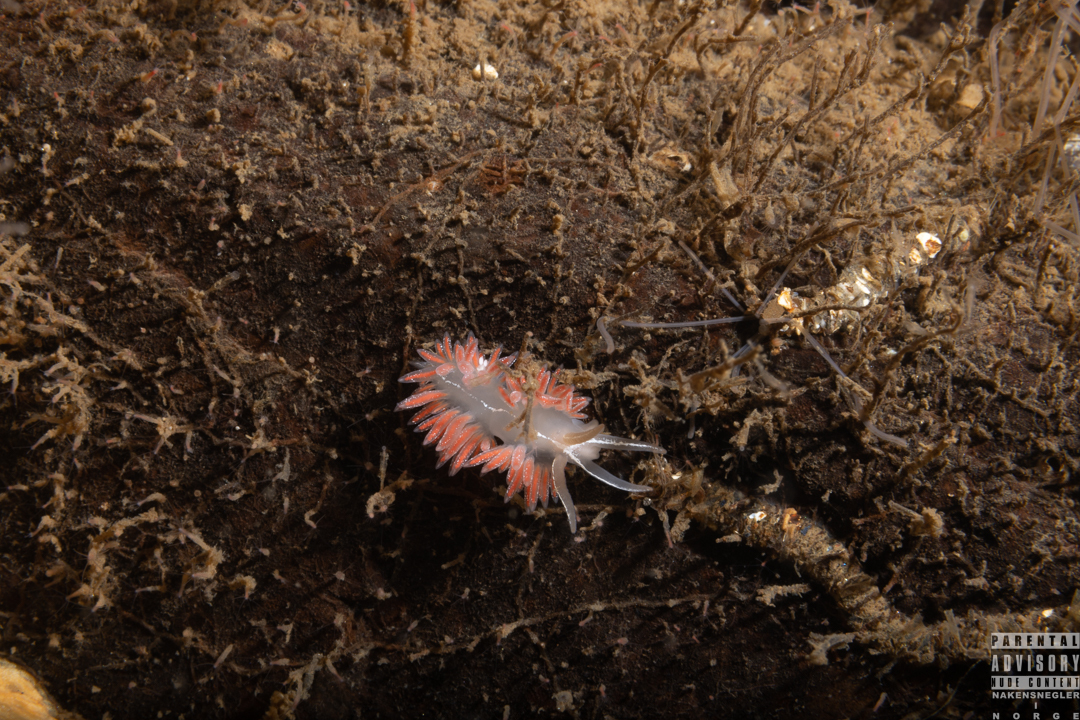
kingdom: Animalia
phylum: Mollusca
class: Gastropoda
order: Nudibranchia
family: Coryphellidae
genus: Coryphella
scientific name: Coryphella monicae
